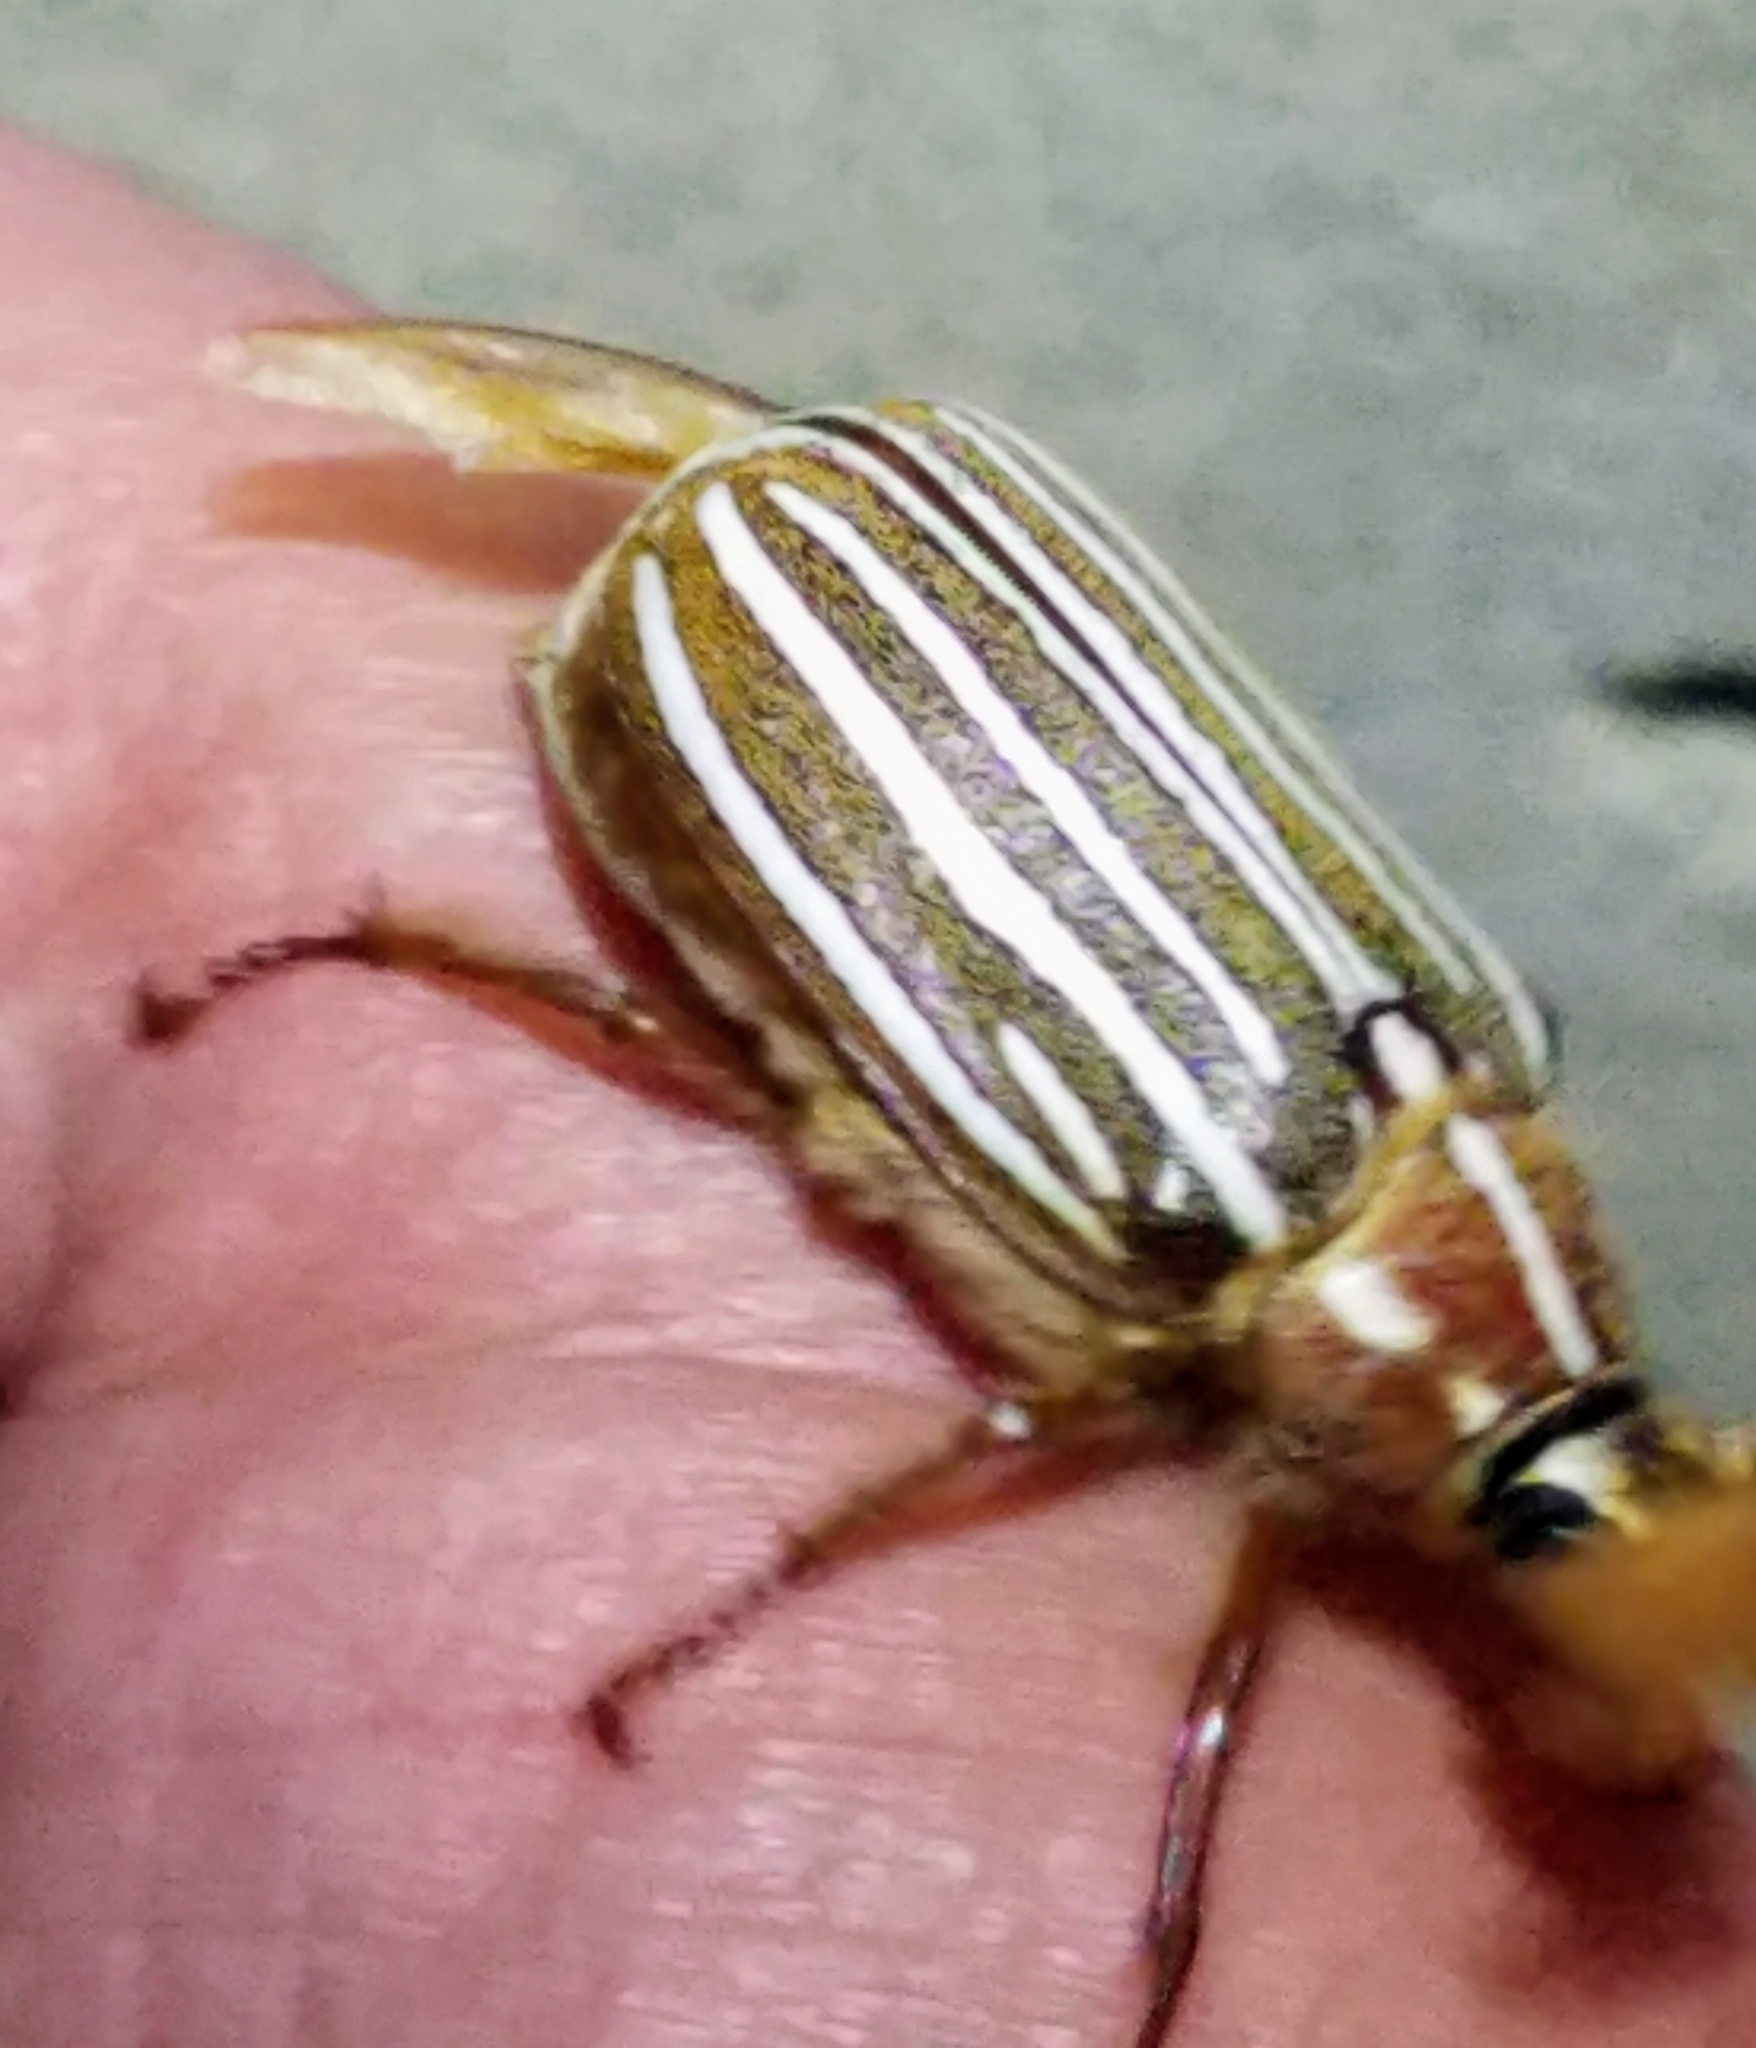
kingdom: Animalia
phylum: Arthropoda
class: Insecta
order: Coleoptera
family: Scarabaeidae
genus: Polyphylla
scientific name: Polyphylla decemlineata
